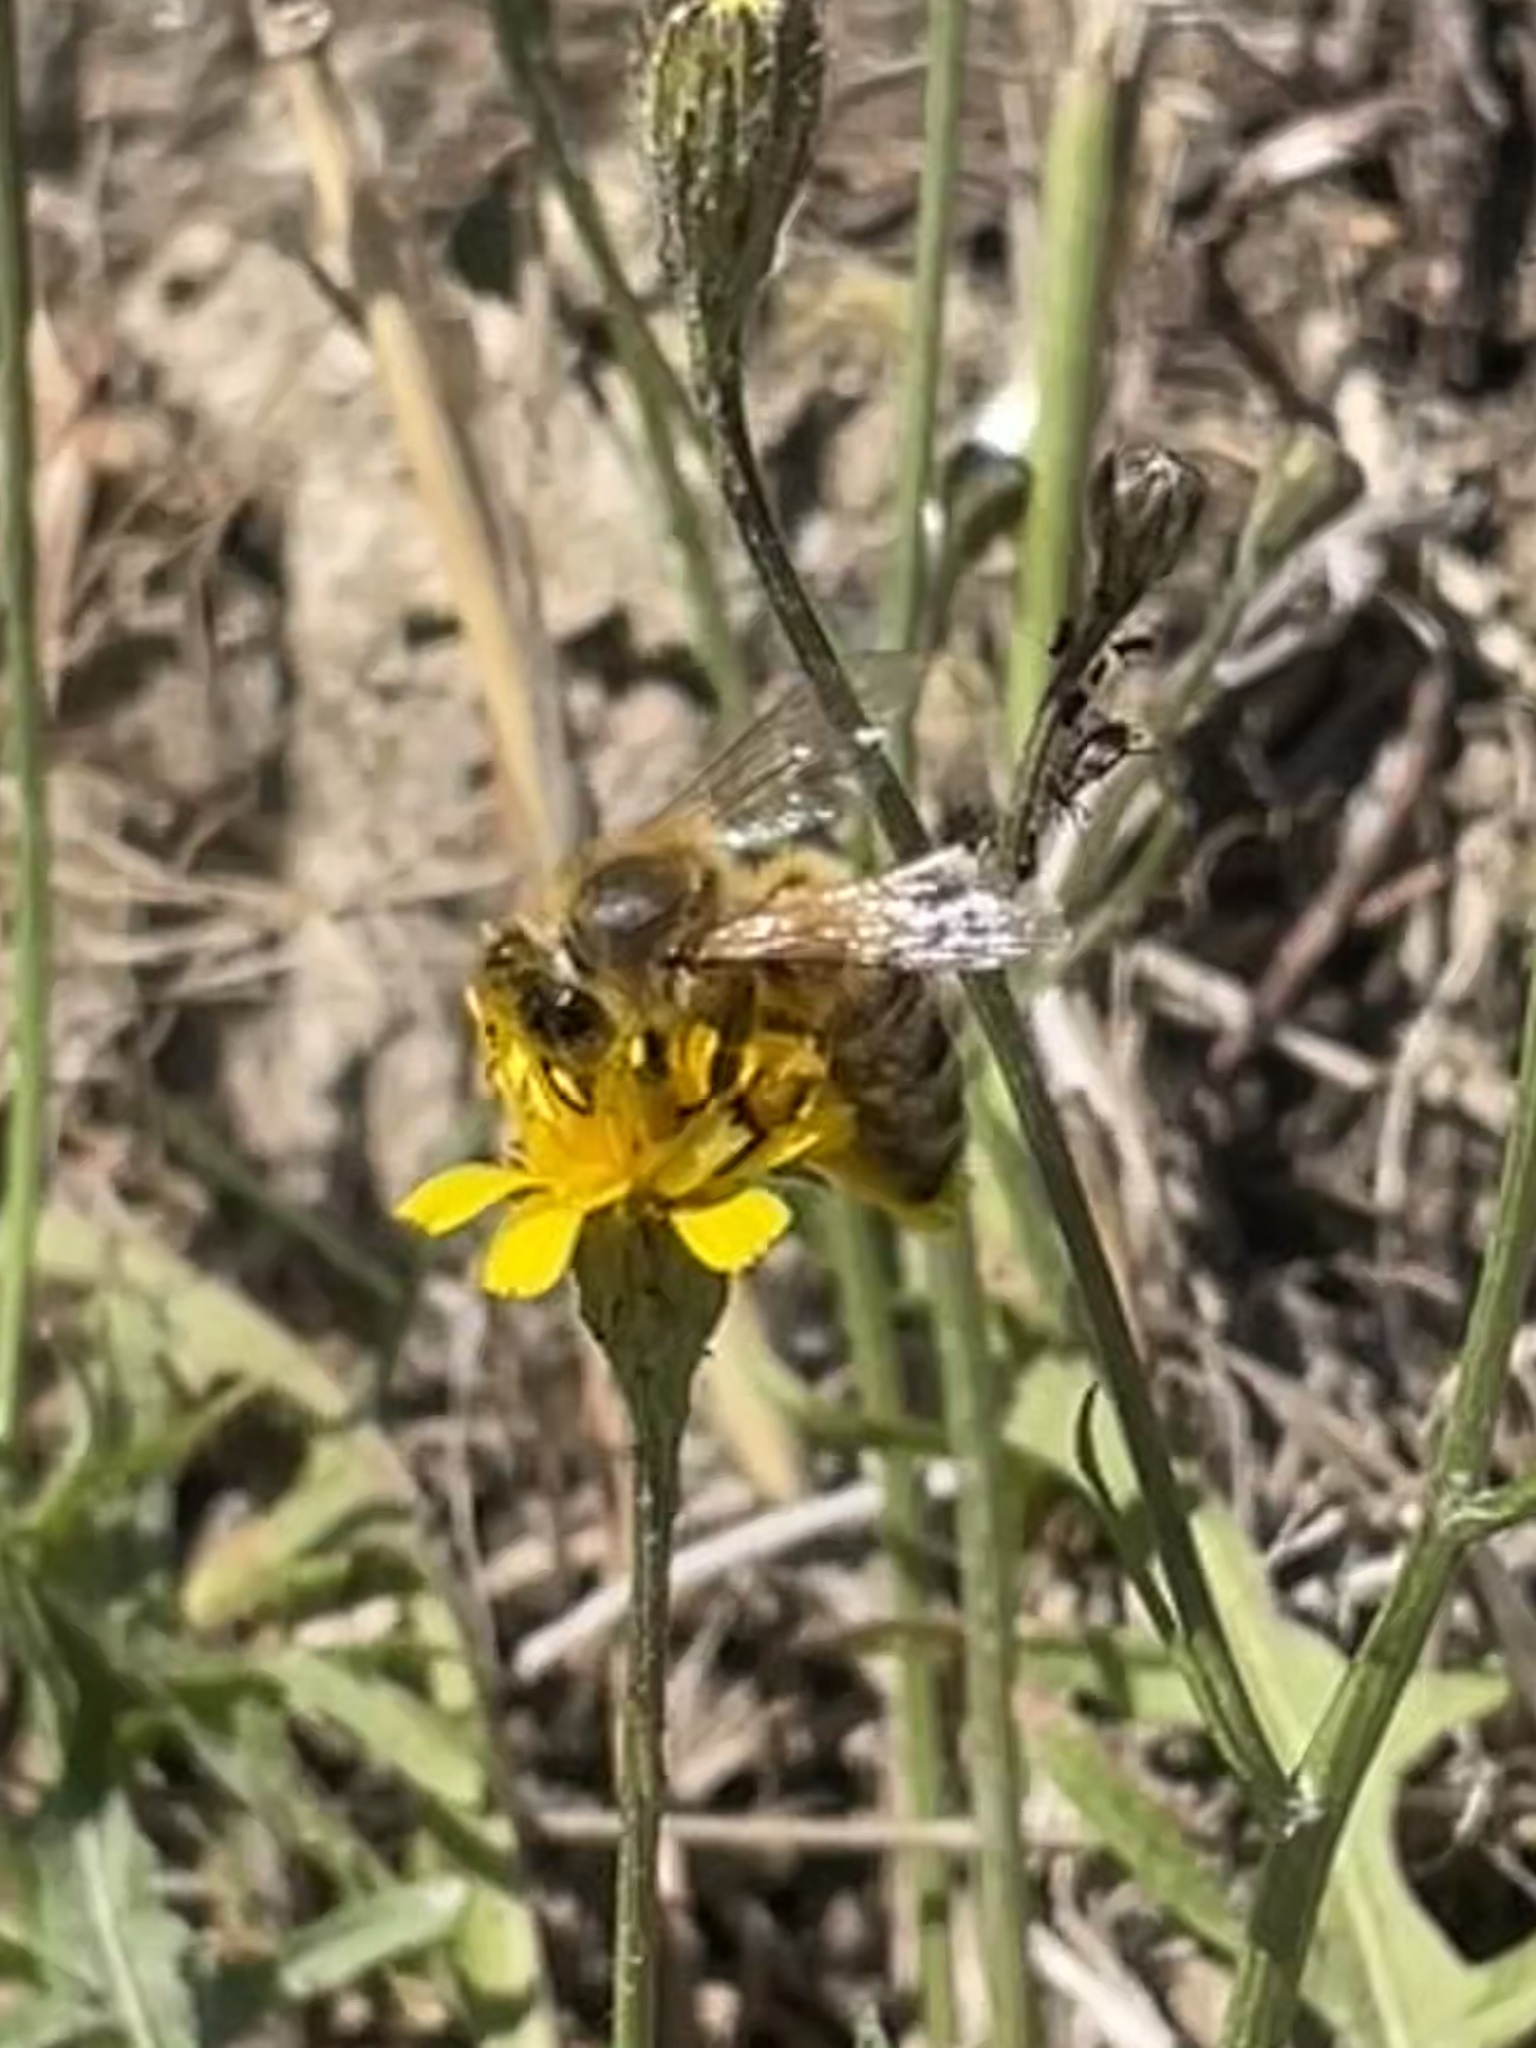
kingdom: Animalia
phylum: Arthropoda
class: Insecta
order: Hymenoptera
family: Apidae
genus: Apis
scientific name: Apis mellifera
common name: Honey bee
